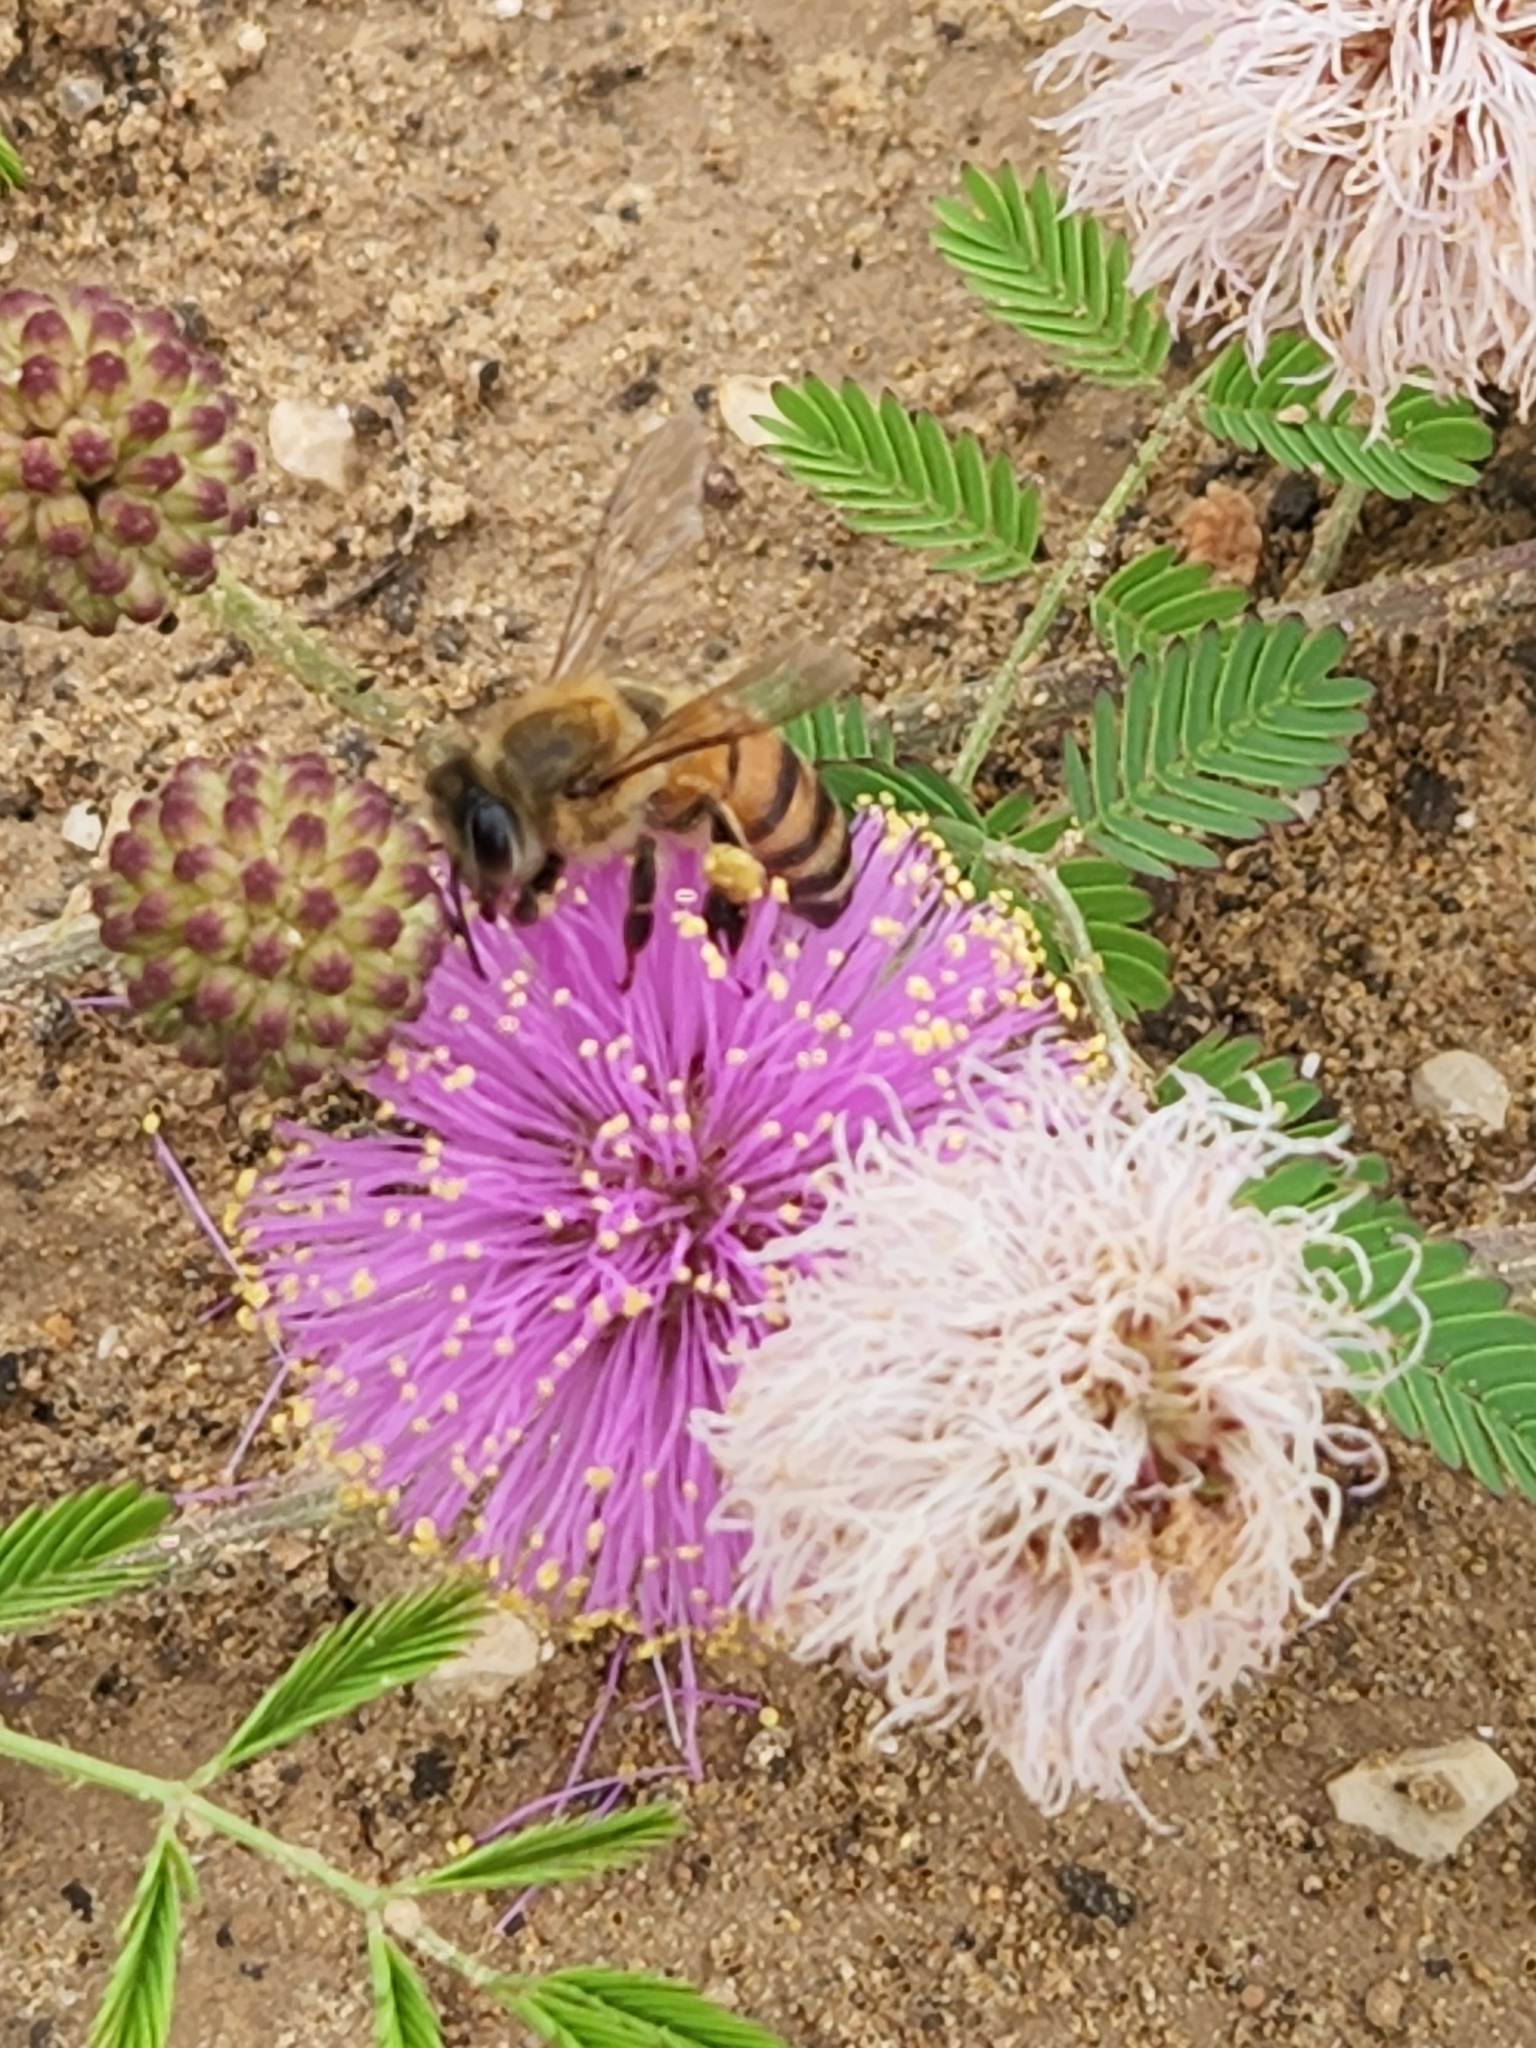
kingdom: Animalia
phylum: Arthropoda
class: Insecta
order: Hymenoptera
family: Apidae
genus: Apis
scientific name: Apis mellifera
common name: Honey bee
